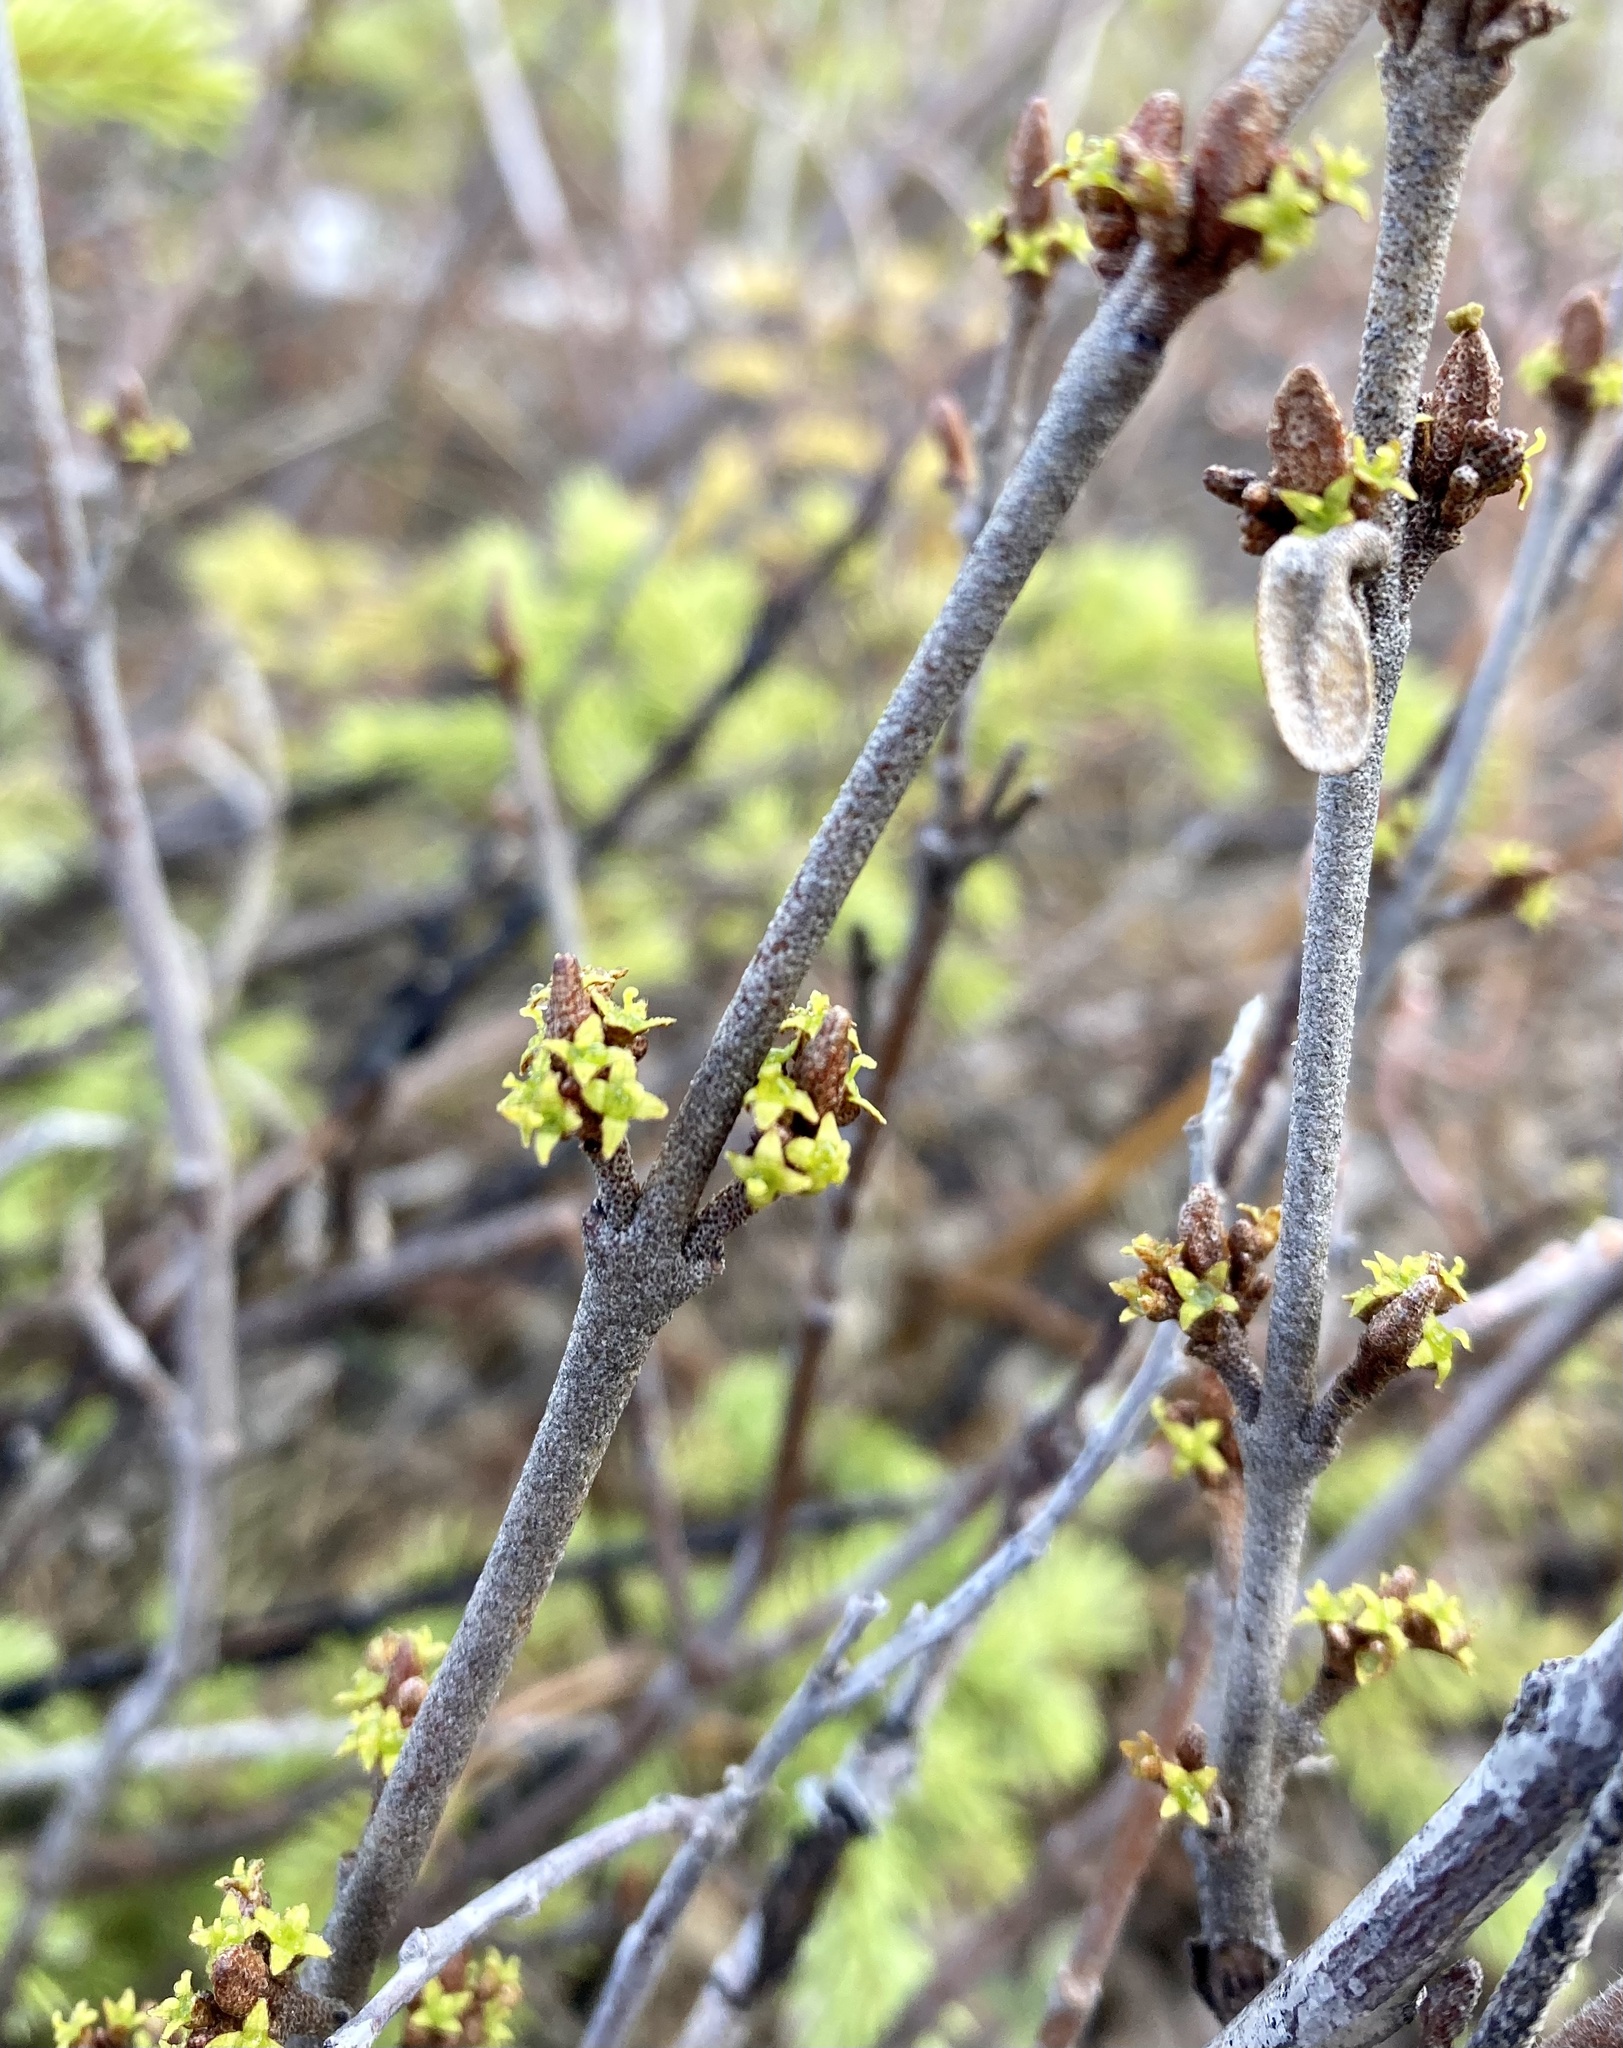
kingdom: Plantae
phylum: Tracheophyta
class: Magnoliopsida
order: Rosales
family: Elaeagnaceae
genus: Shepherdia
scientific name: Shepherdia canadensis
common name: Soapberry
